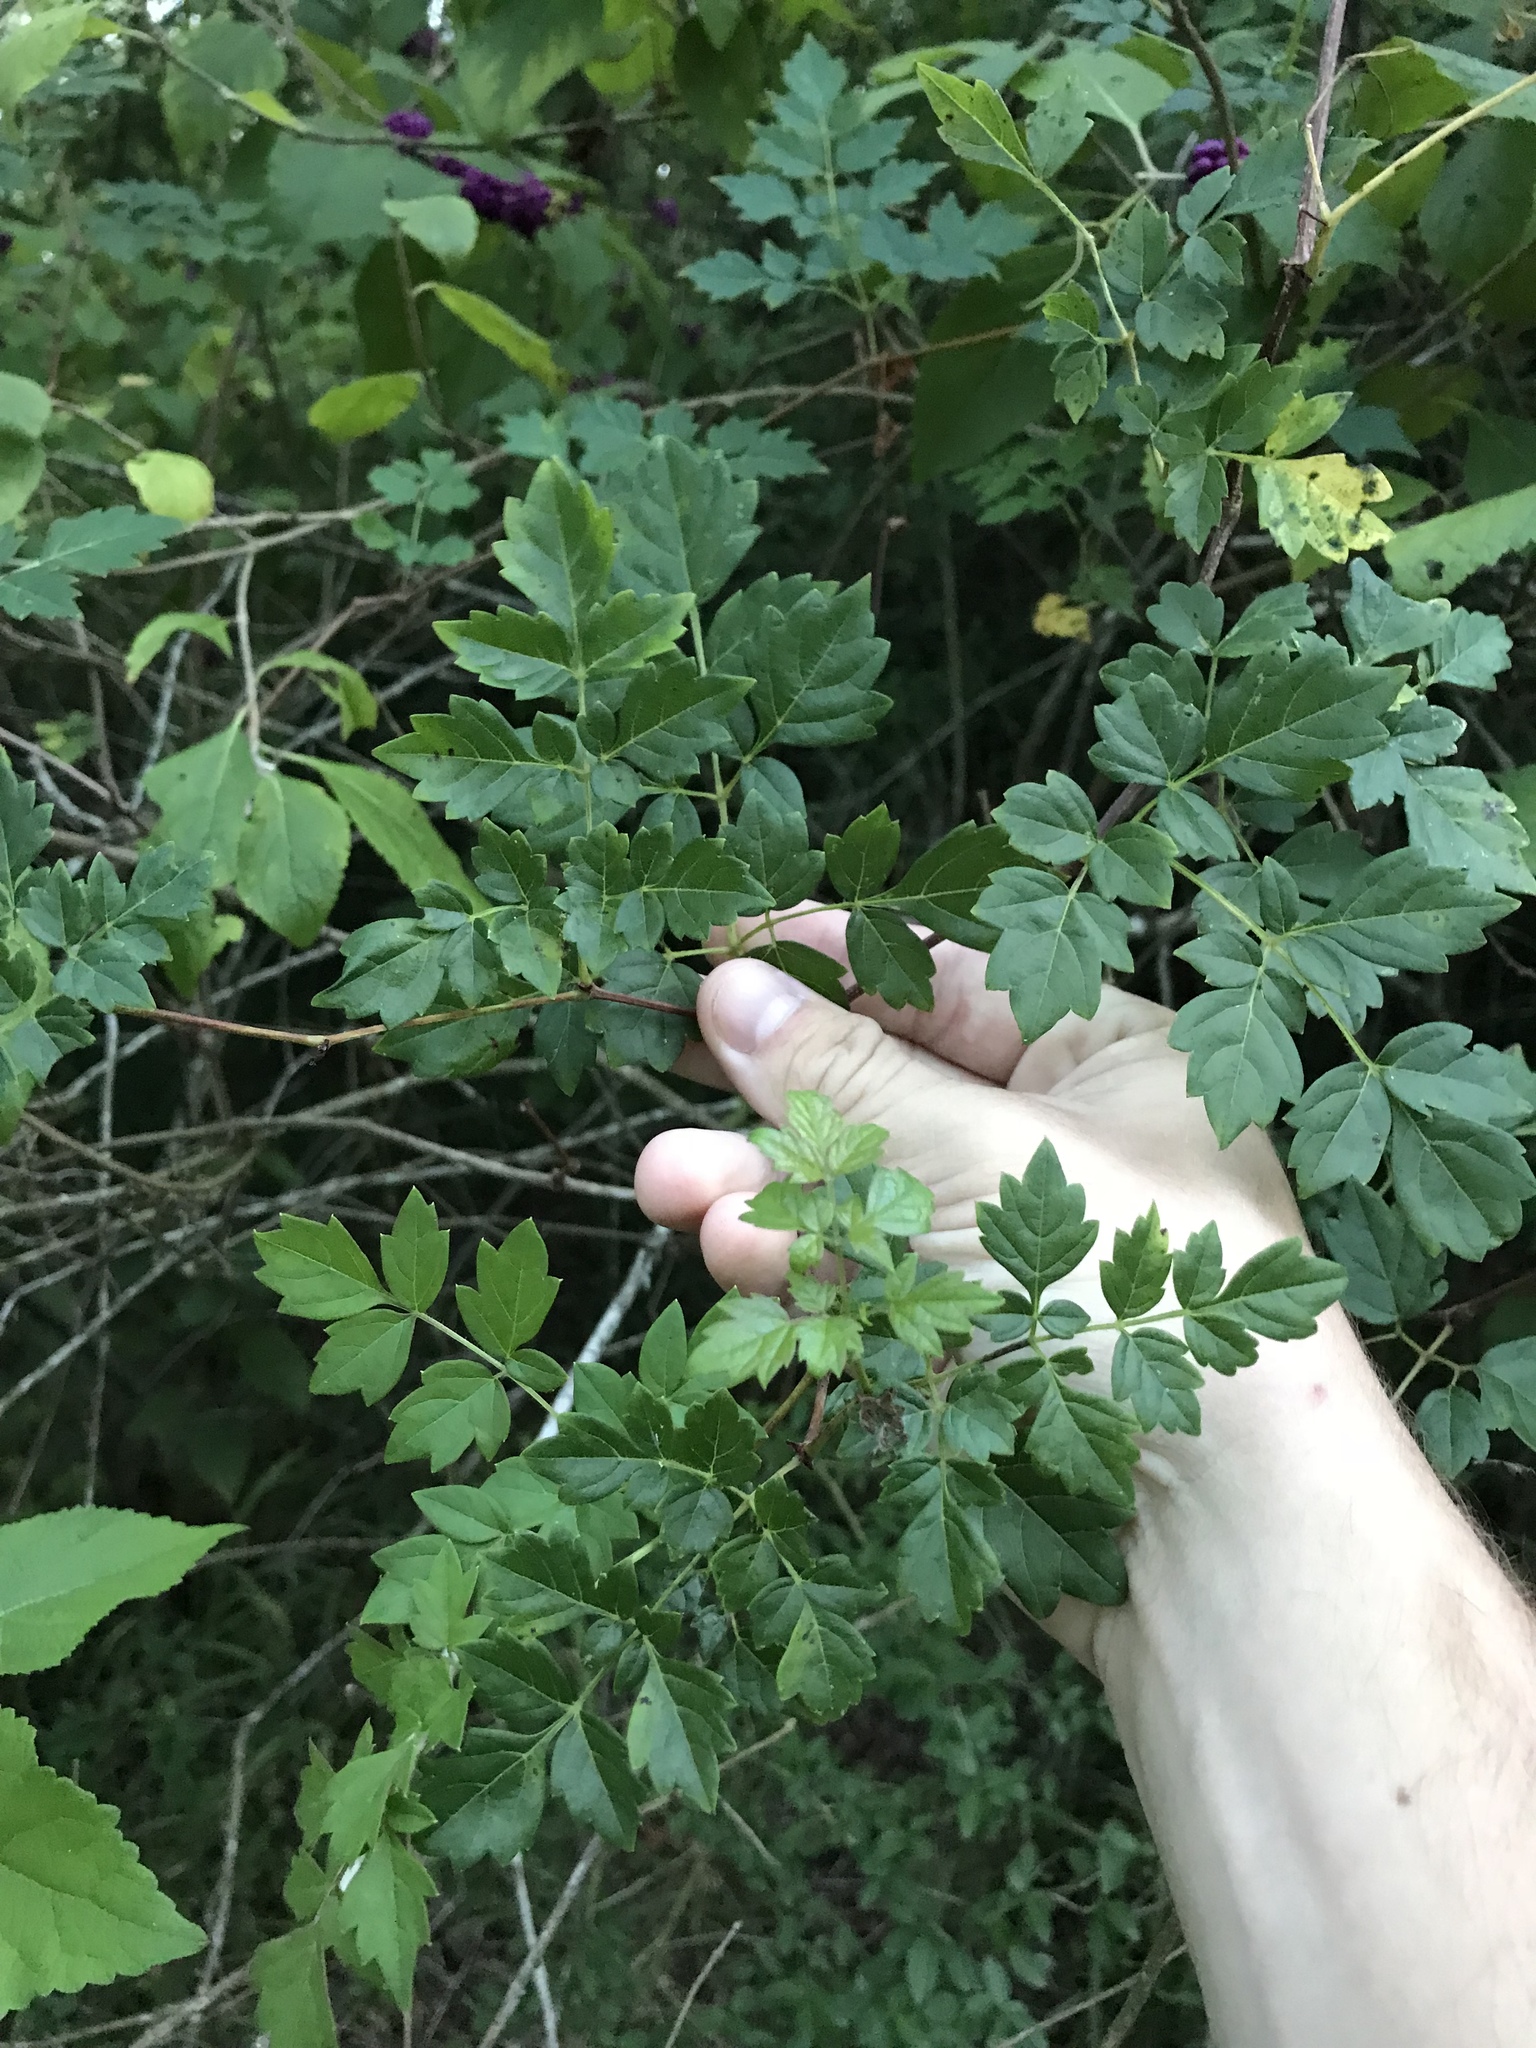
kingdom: Plantae
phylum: Tracheophyta
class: Magnoliopsida
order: Vitales
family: Vitaceae
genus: Nekemias
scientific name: Nekemias arborea
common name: Peppervine
